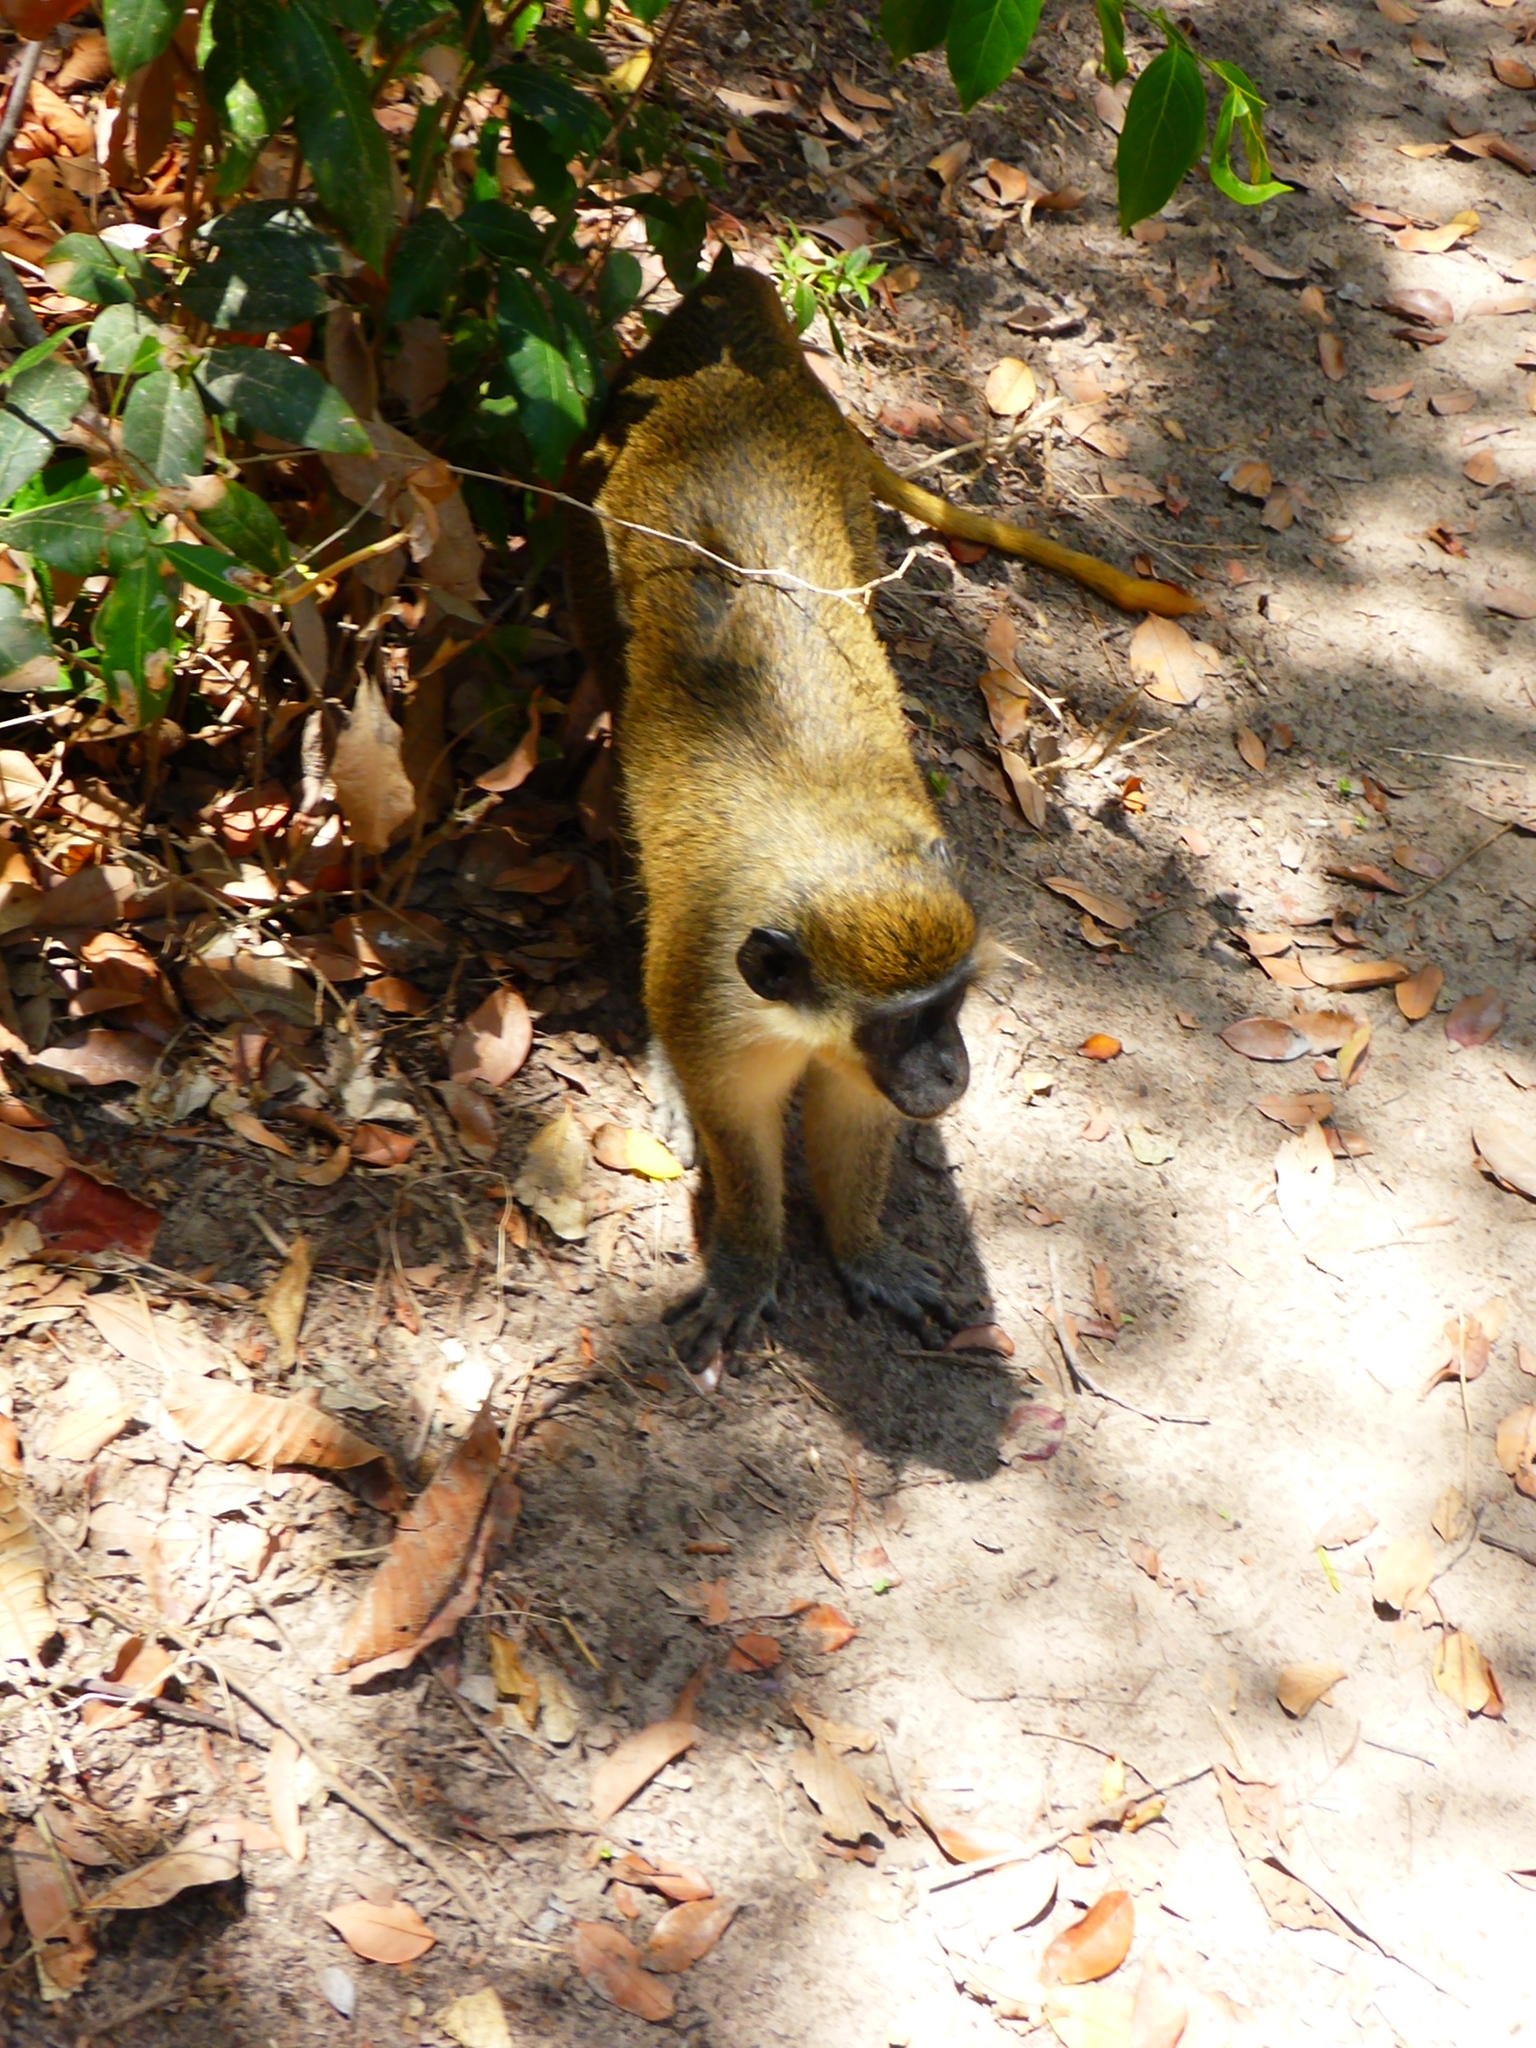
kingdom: Animalia
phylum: Chordata
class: Mammalia
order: Primates
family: Cercopithecidae
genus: Chlorocebus
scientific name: Chlorocebus sabaeus
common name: Green monkey
